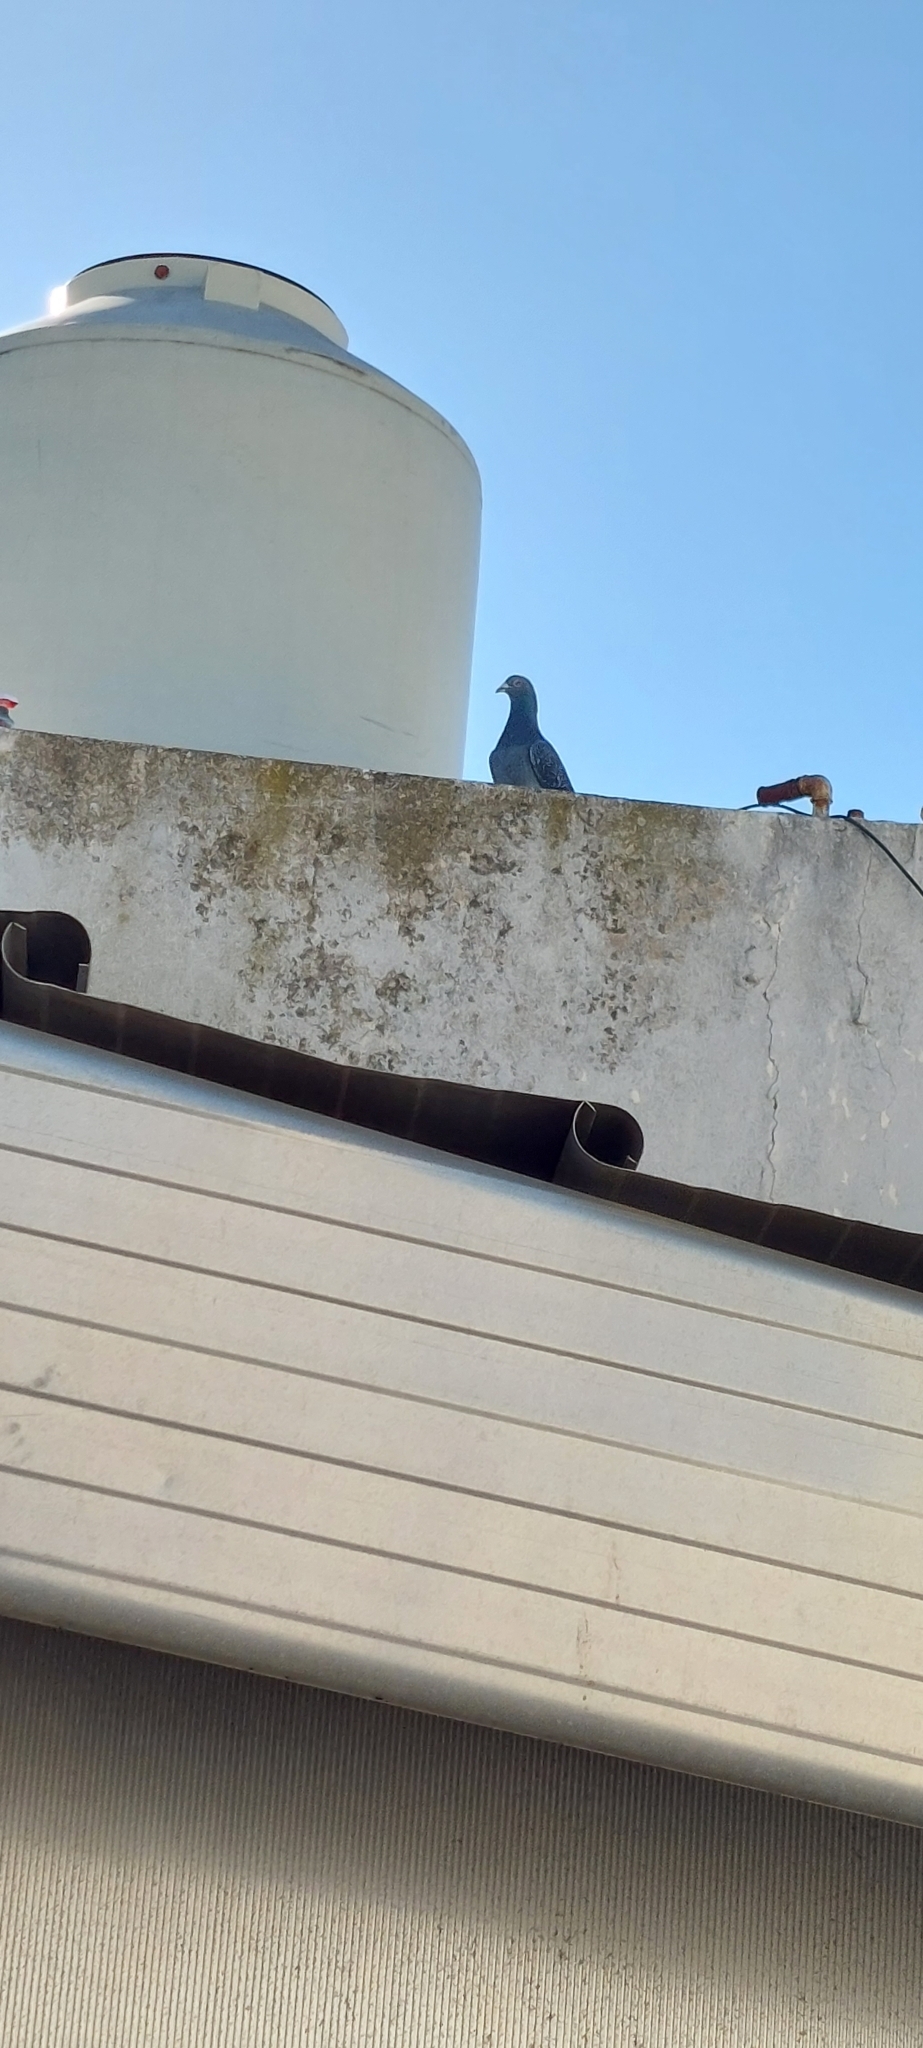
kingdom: Animalia
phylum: Chordata
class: Aves
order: Columbiformes
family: Columbidae
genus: Columba
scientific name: Columba livia
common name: Rock pigeon
